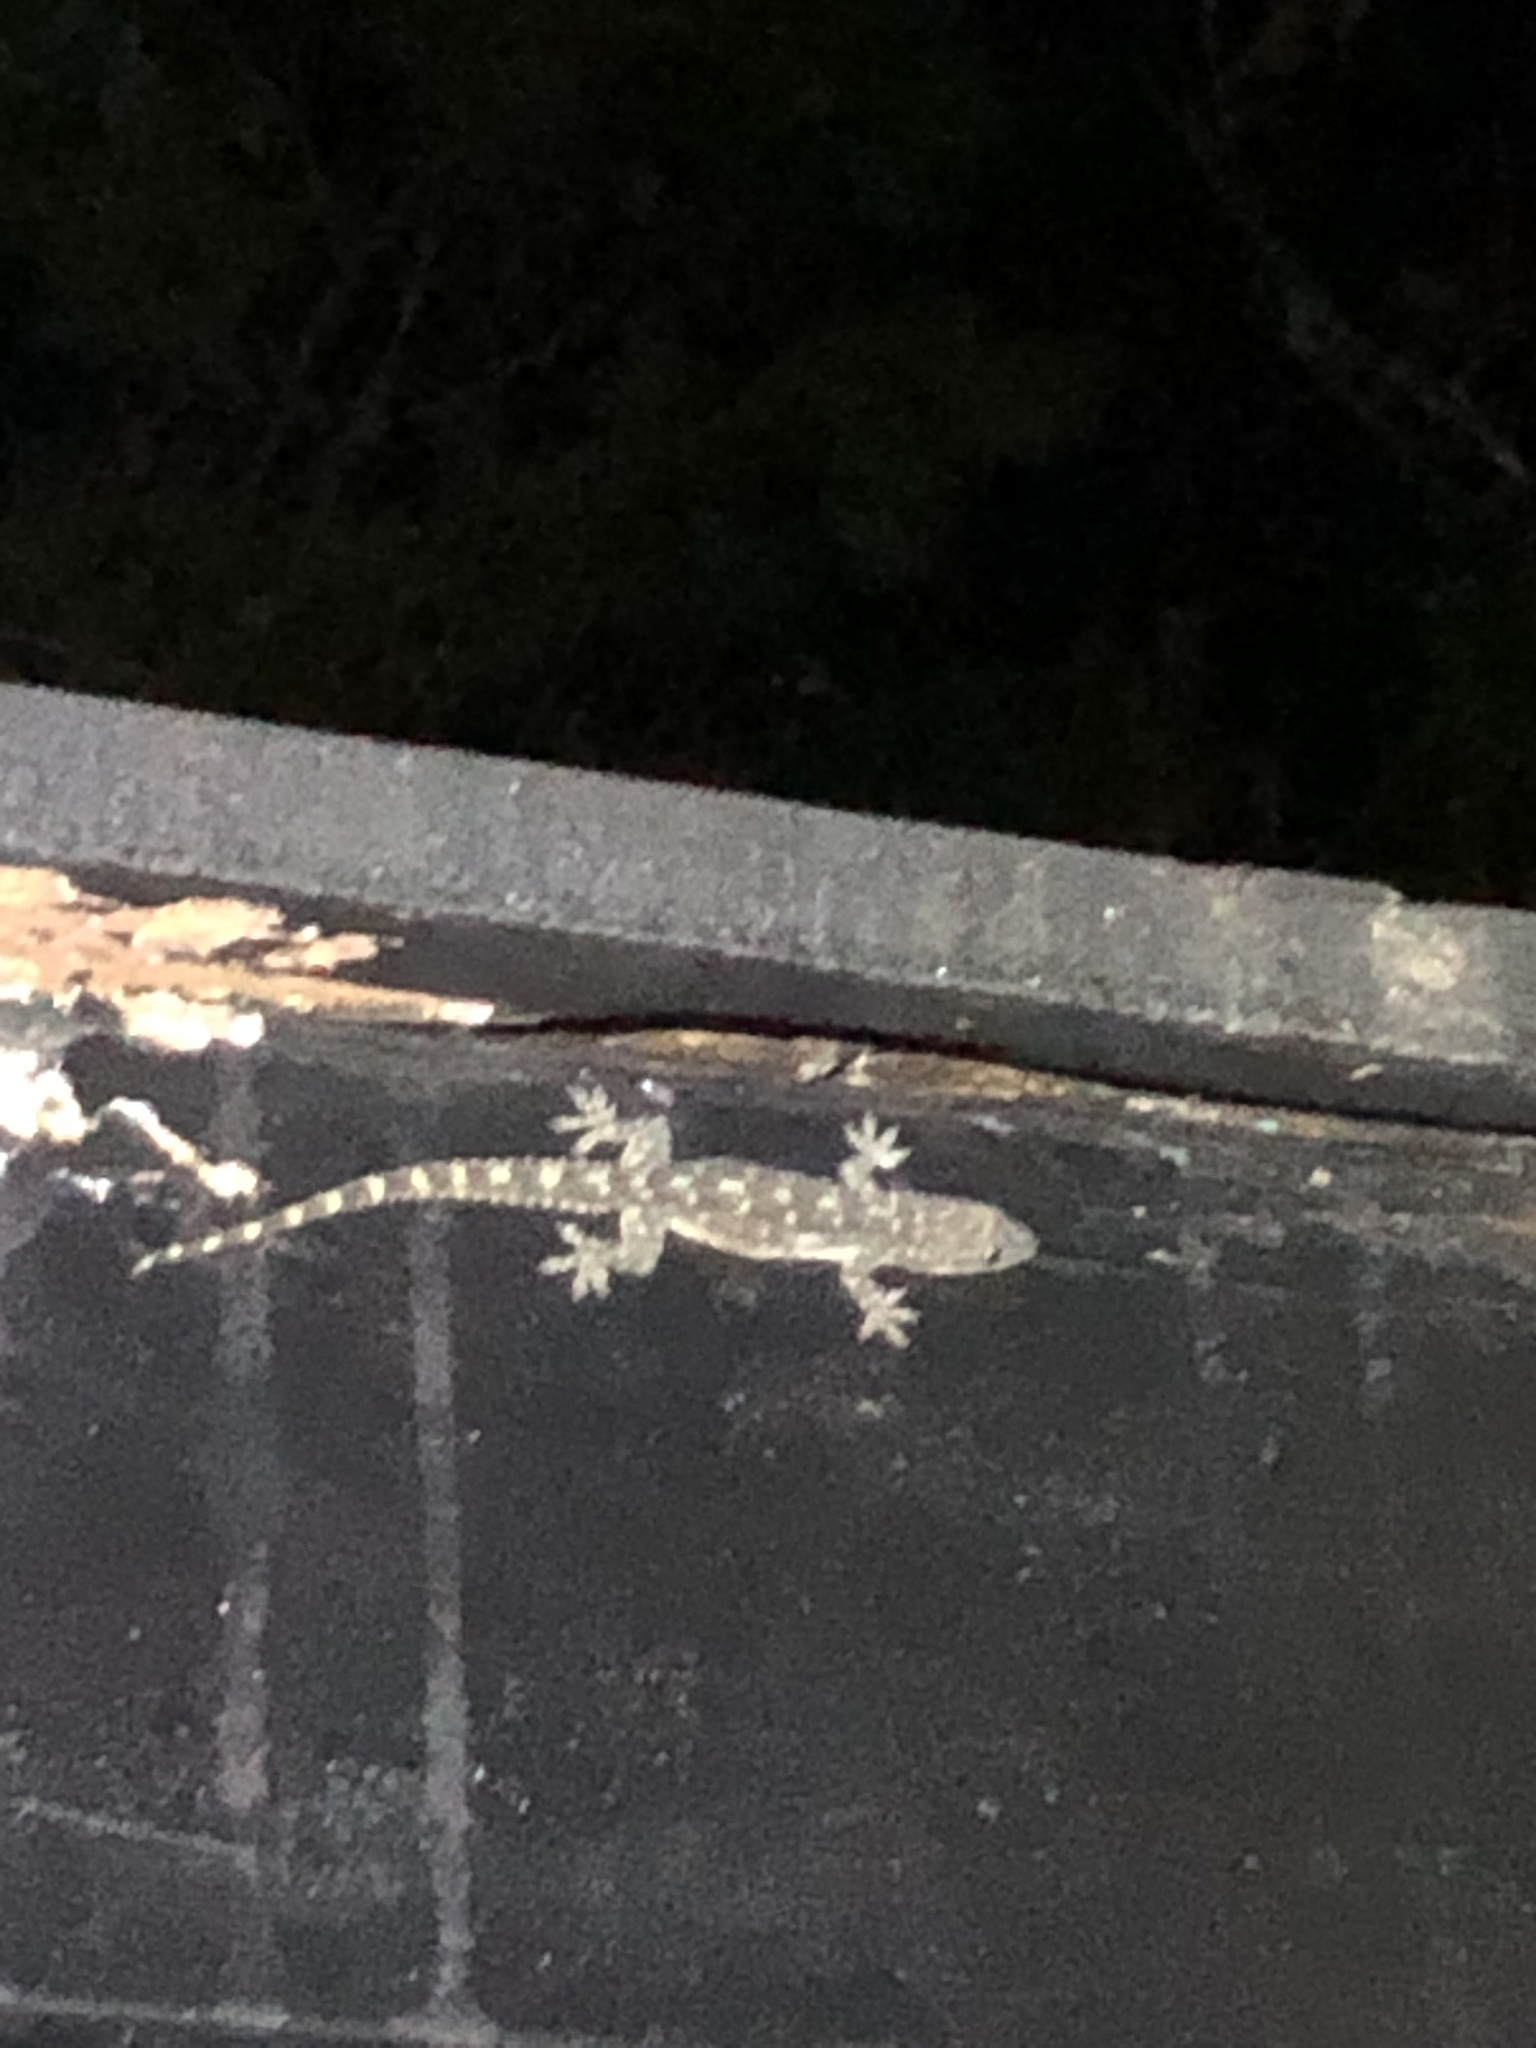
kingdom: Animalia
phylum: Chordata
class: Squamata
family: Gekkonidae
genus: Hemidactylus
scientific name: Hemidactylus garnotii
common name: Indo-pacific gecko
